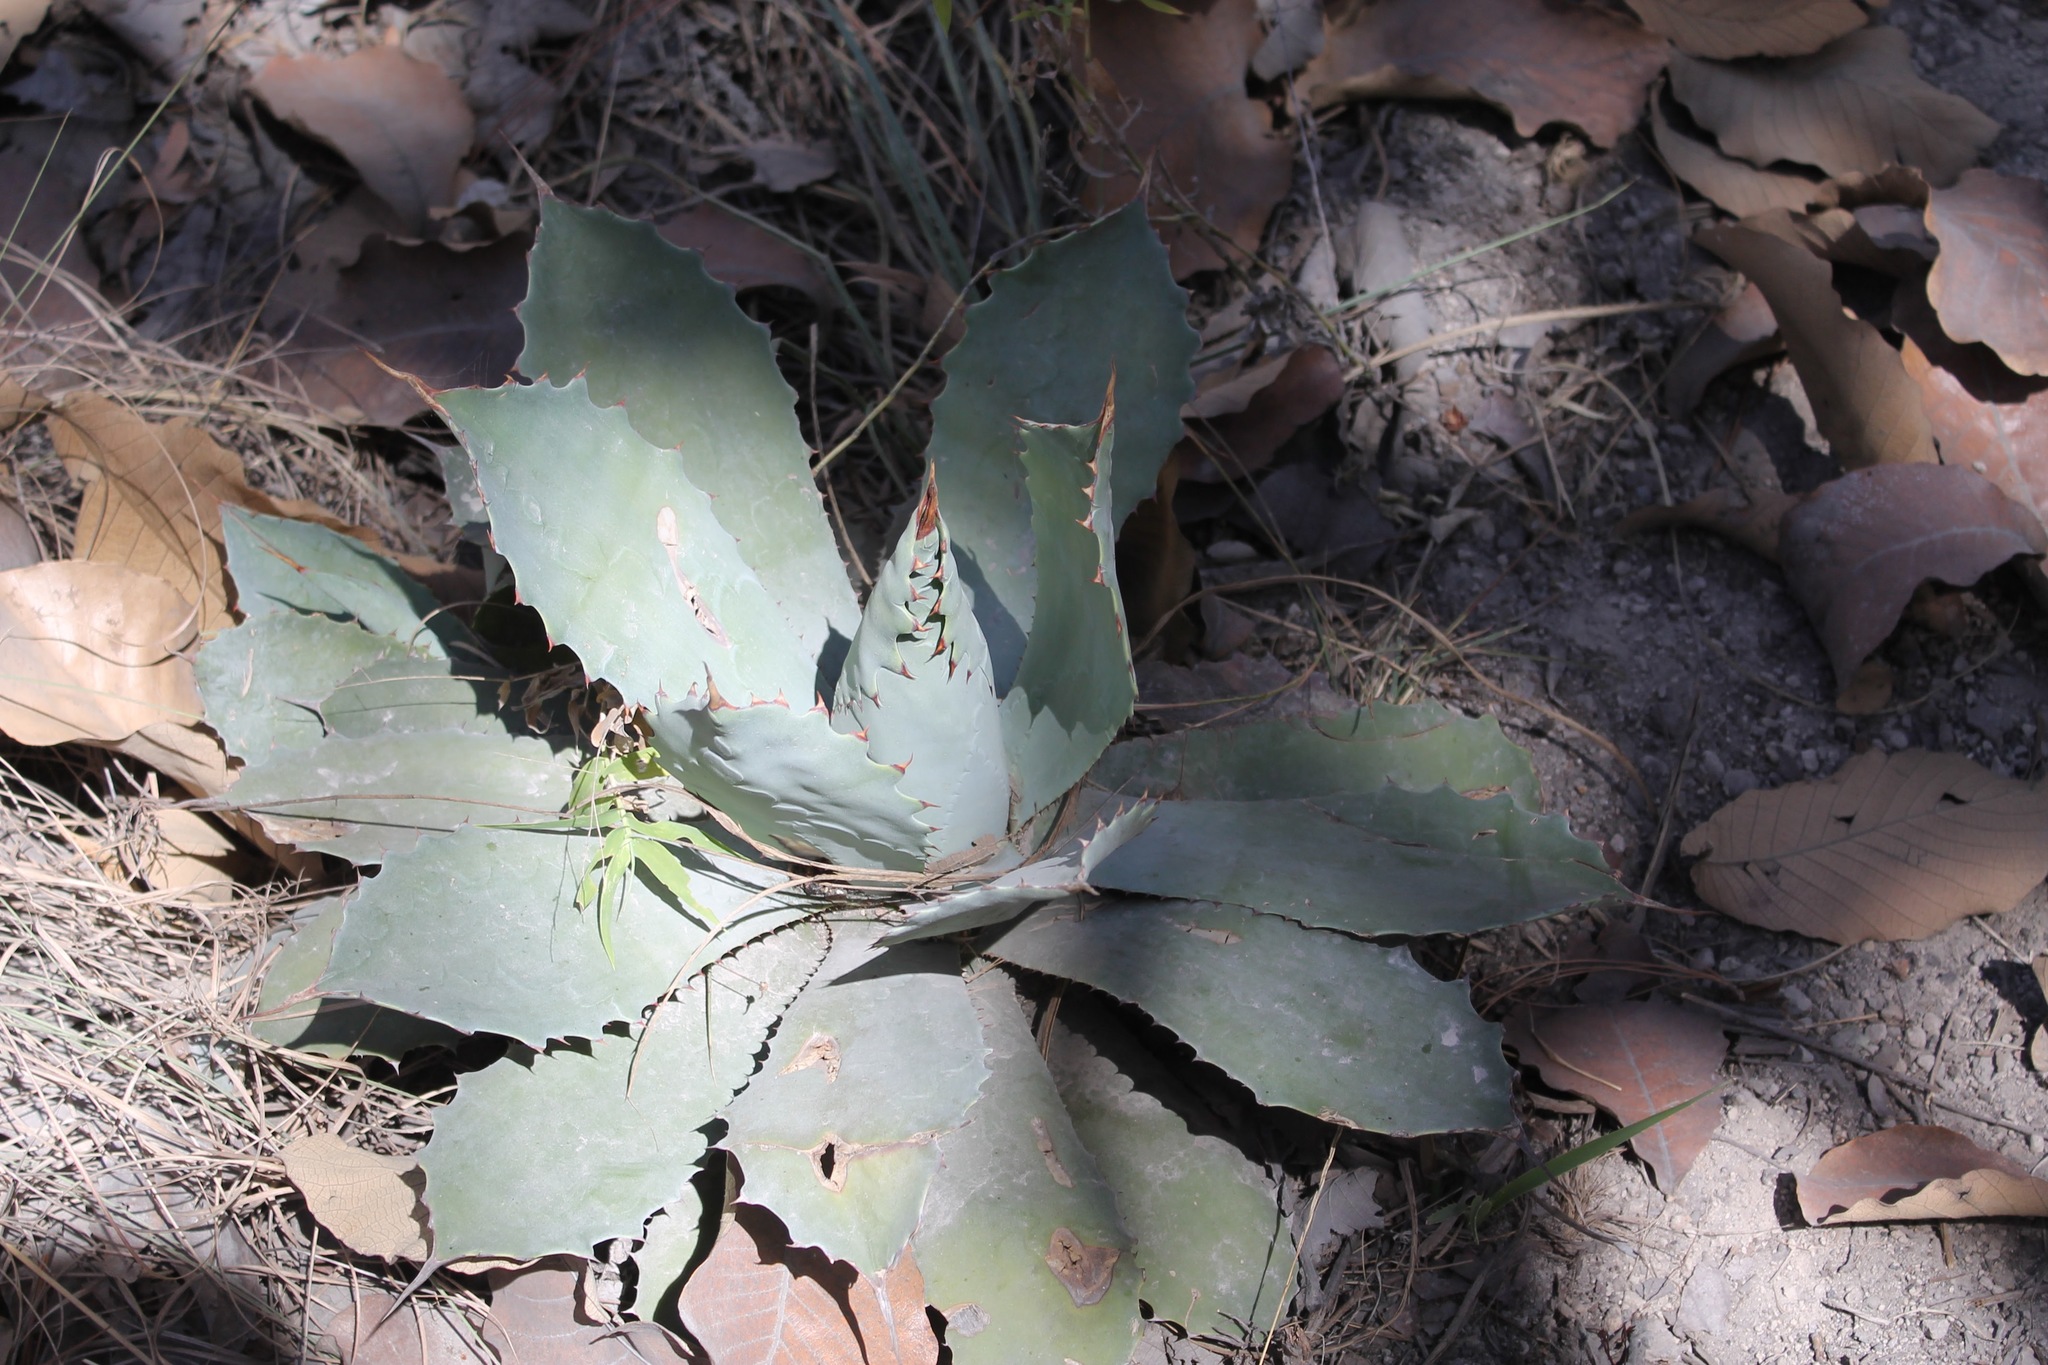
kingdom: Plantae
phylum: Tracheophyta
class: Liliopsida
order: Asparagales
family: Asparagaceae
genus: Agave
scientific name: Agave guadalajarana
